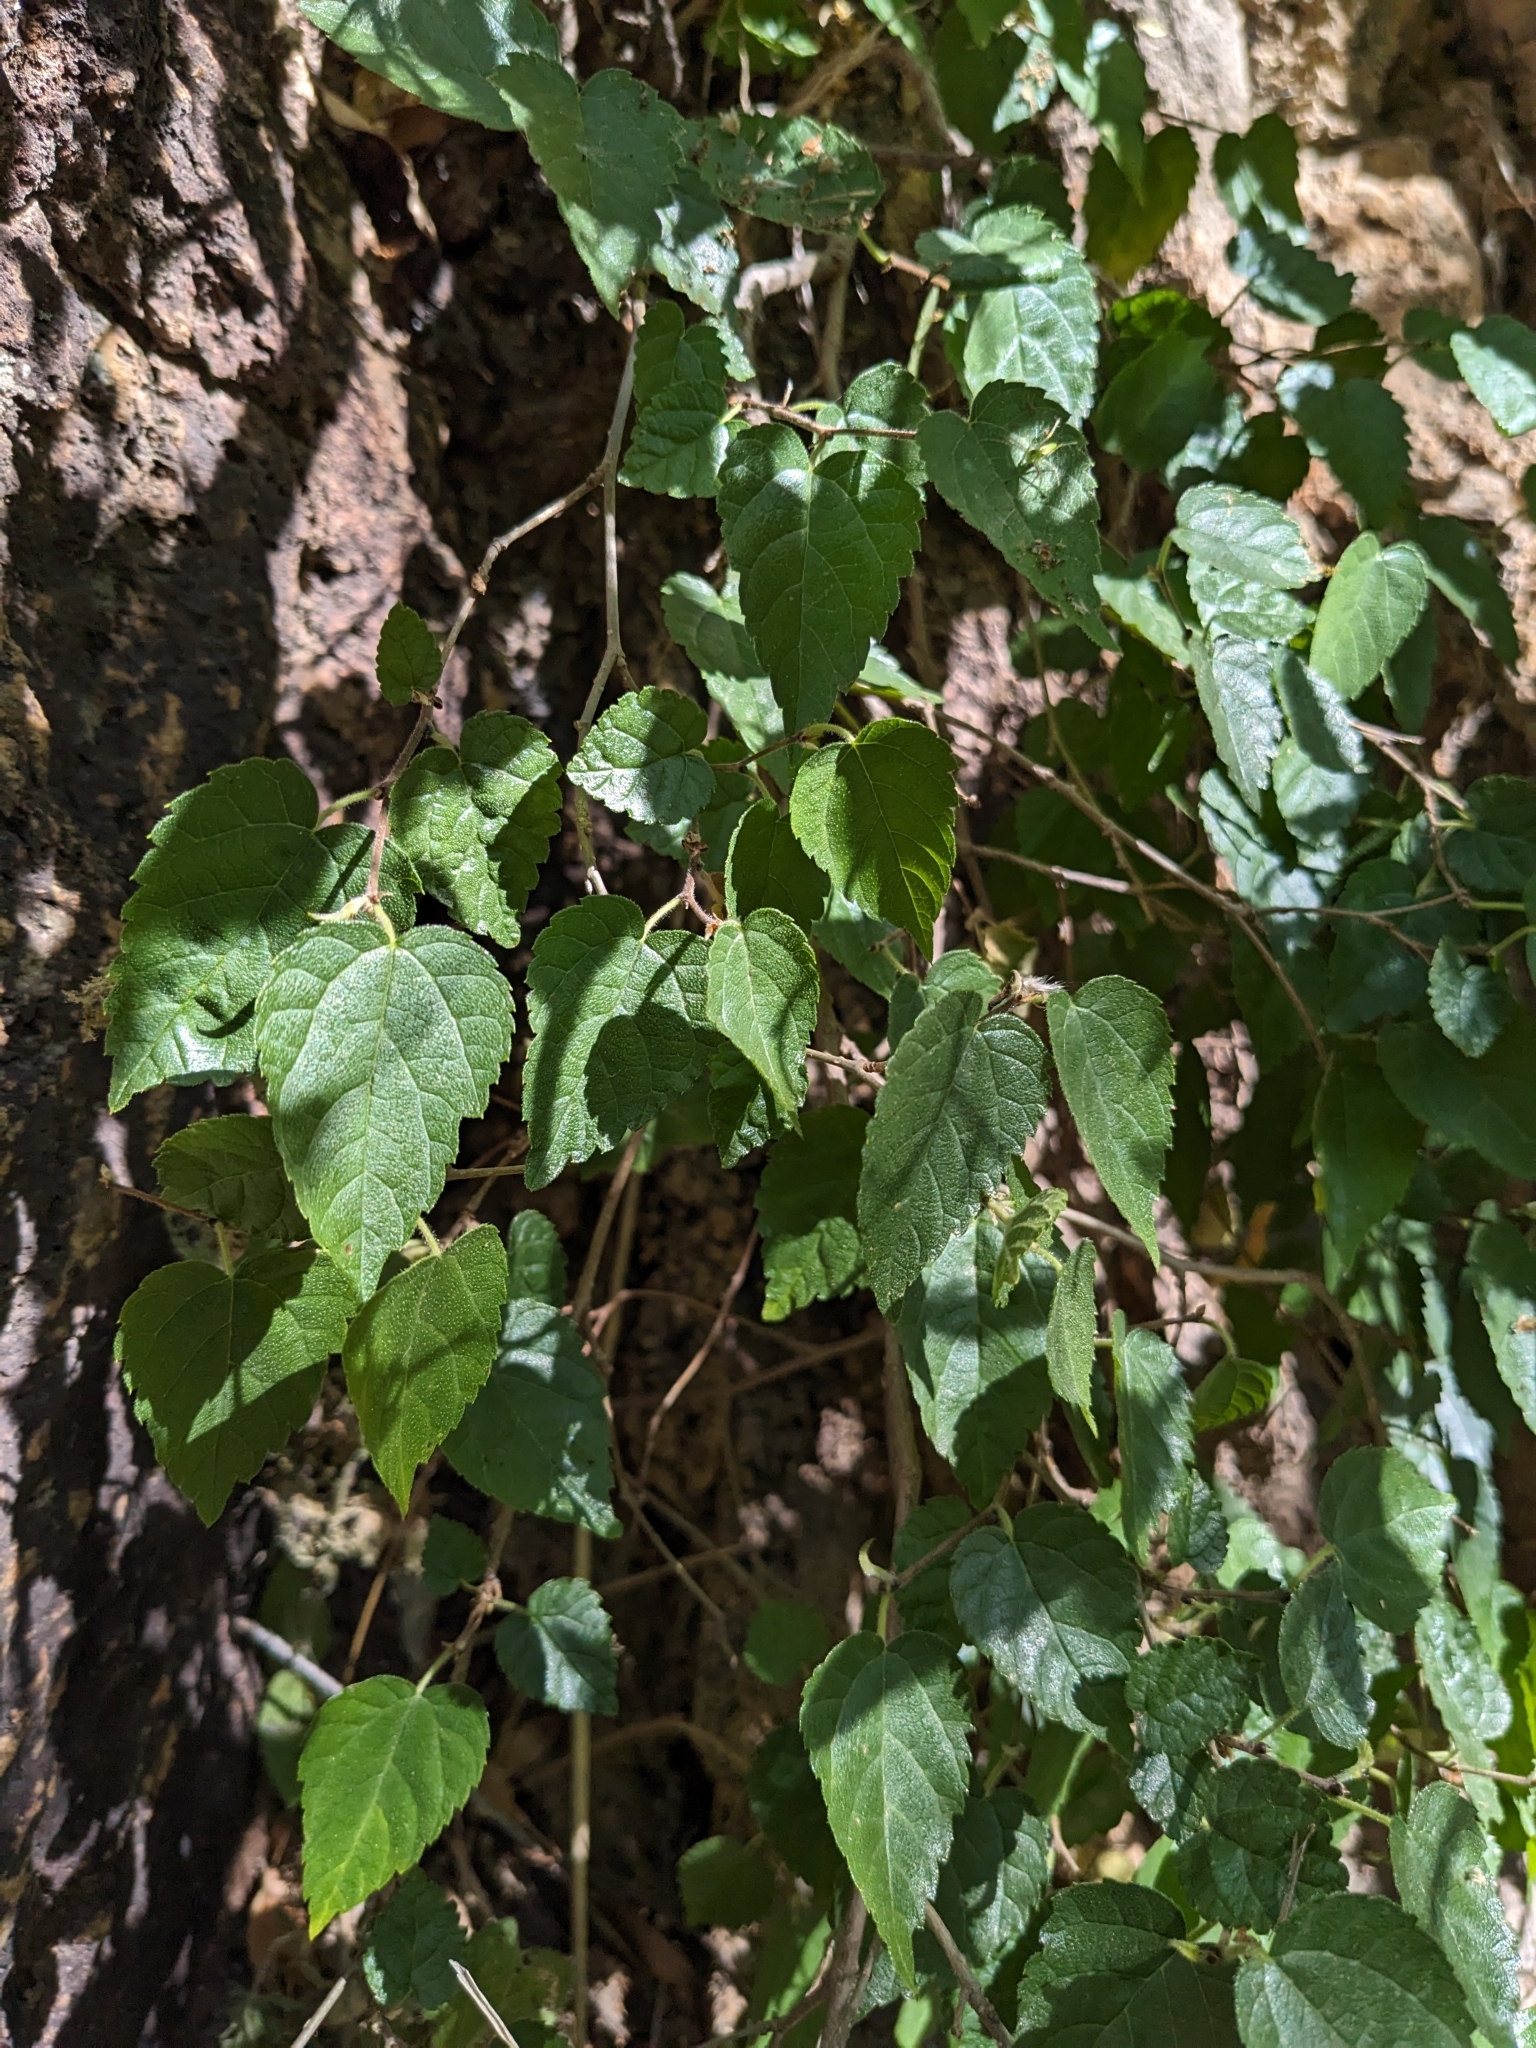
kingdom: Plantae
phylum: Tracheophyta
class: Magnoliopsida
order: Rosales
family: Moraceae
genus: Morus
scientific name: Morus microphylla
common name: Mexican mulberry
